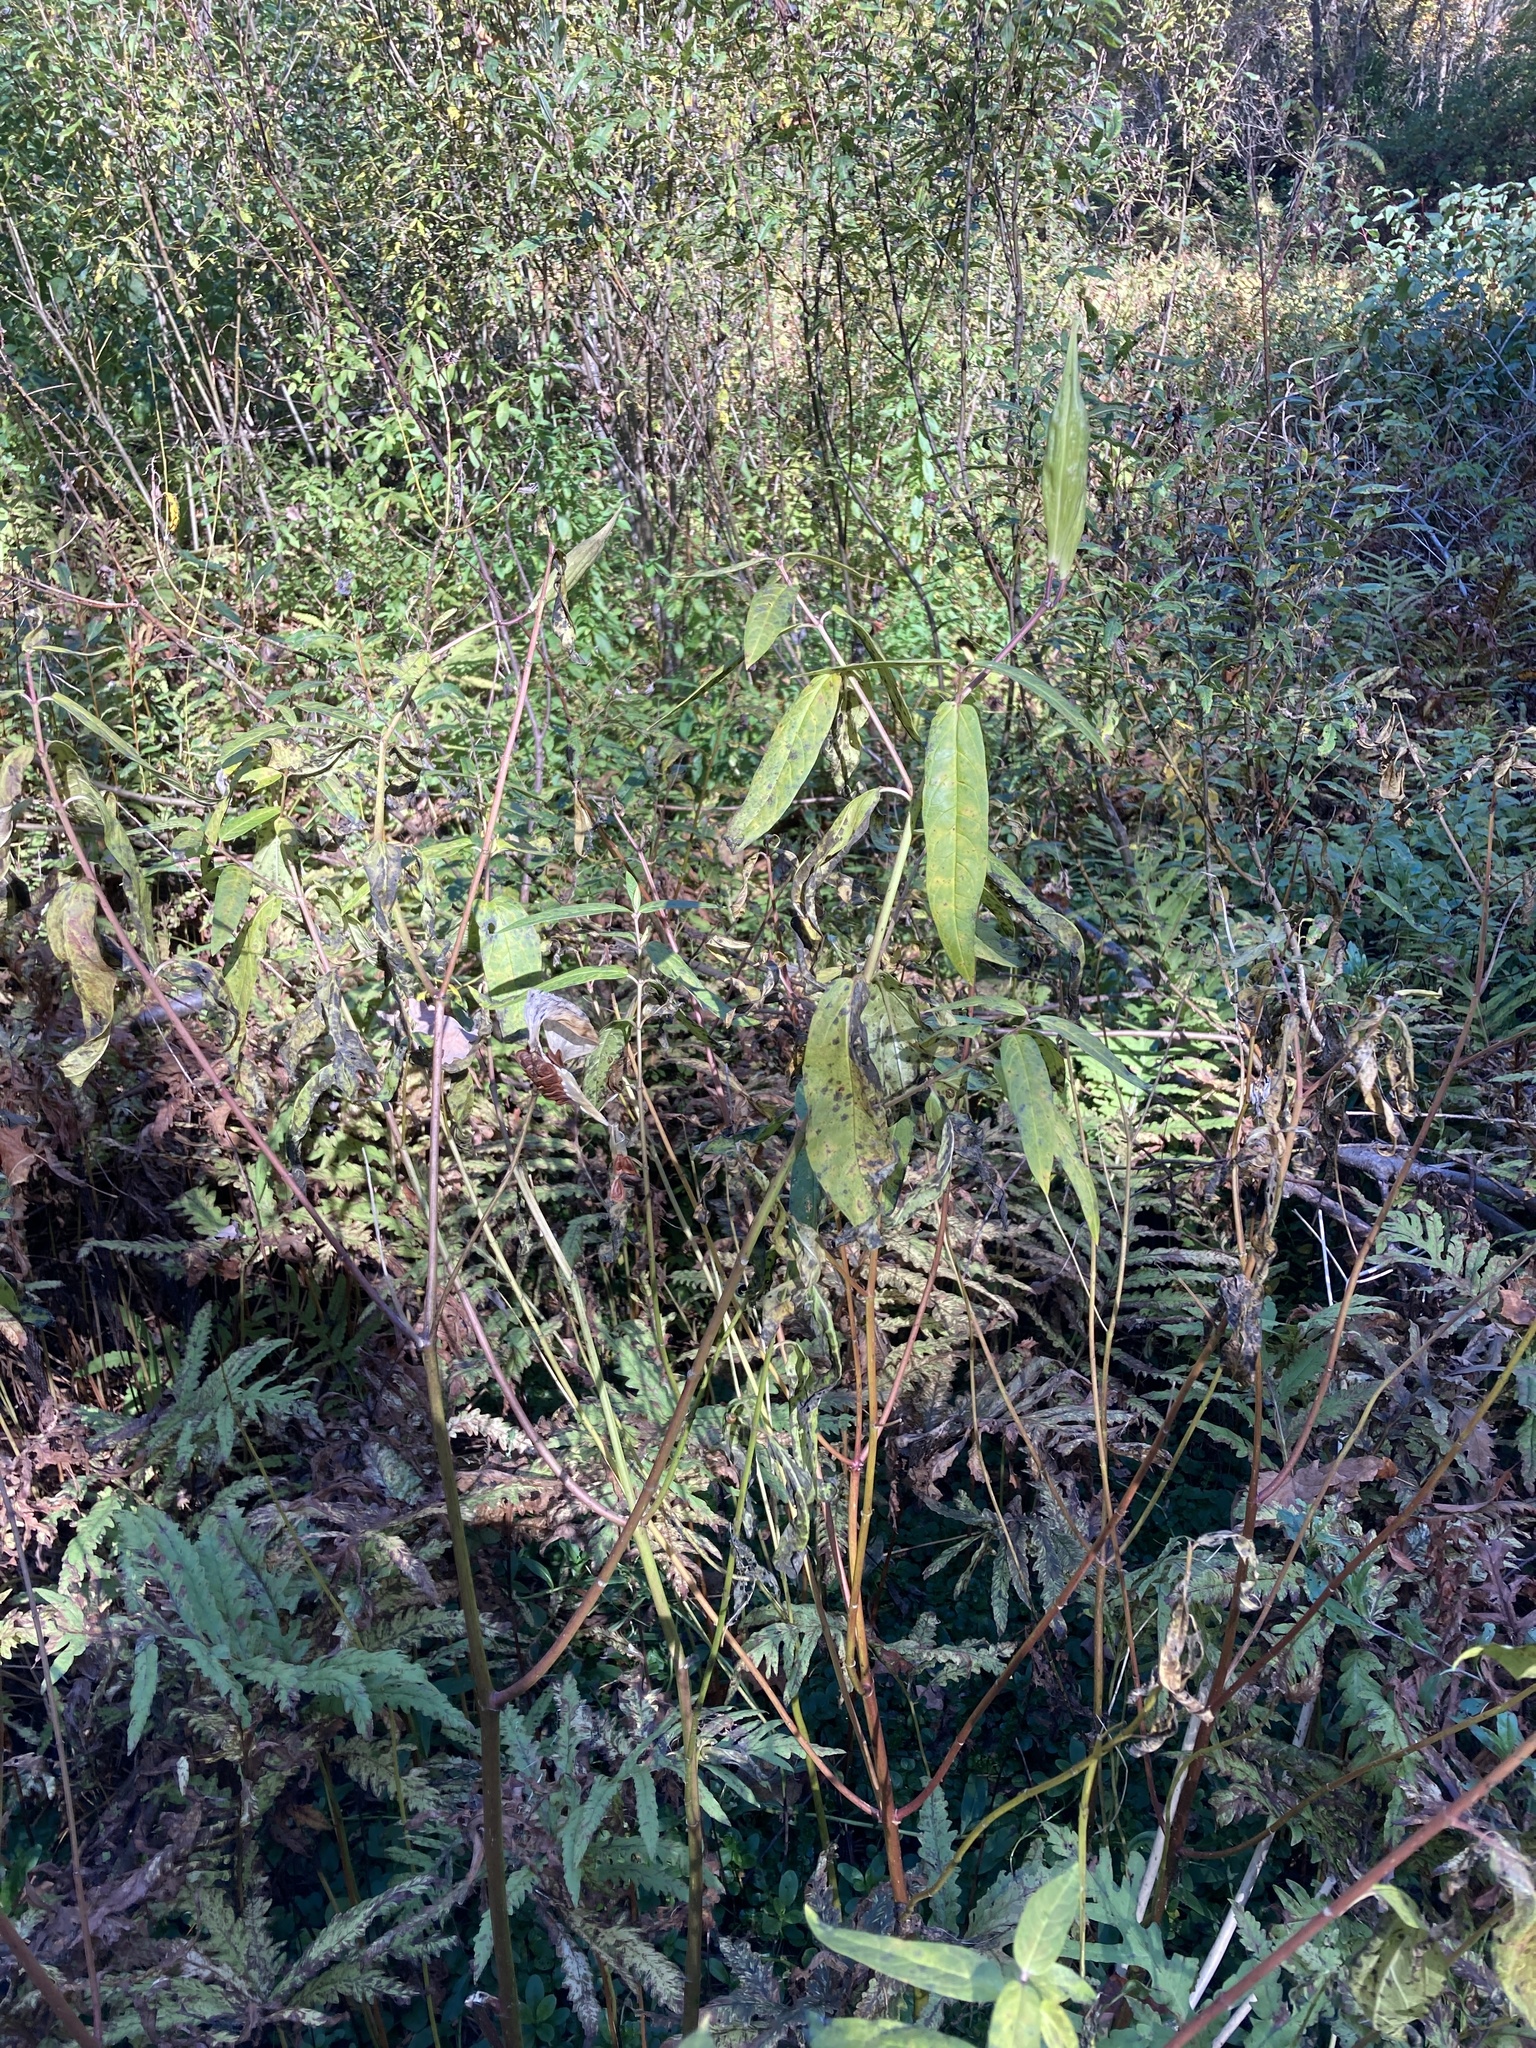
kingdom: Plantae
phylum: Tracheophyta
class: Magnoliopsida
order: Gentianales
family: Apocynaceae
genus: Asclepias
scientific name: Asclepias incarnata
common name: Swamp milkweed
